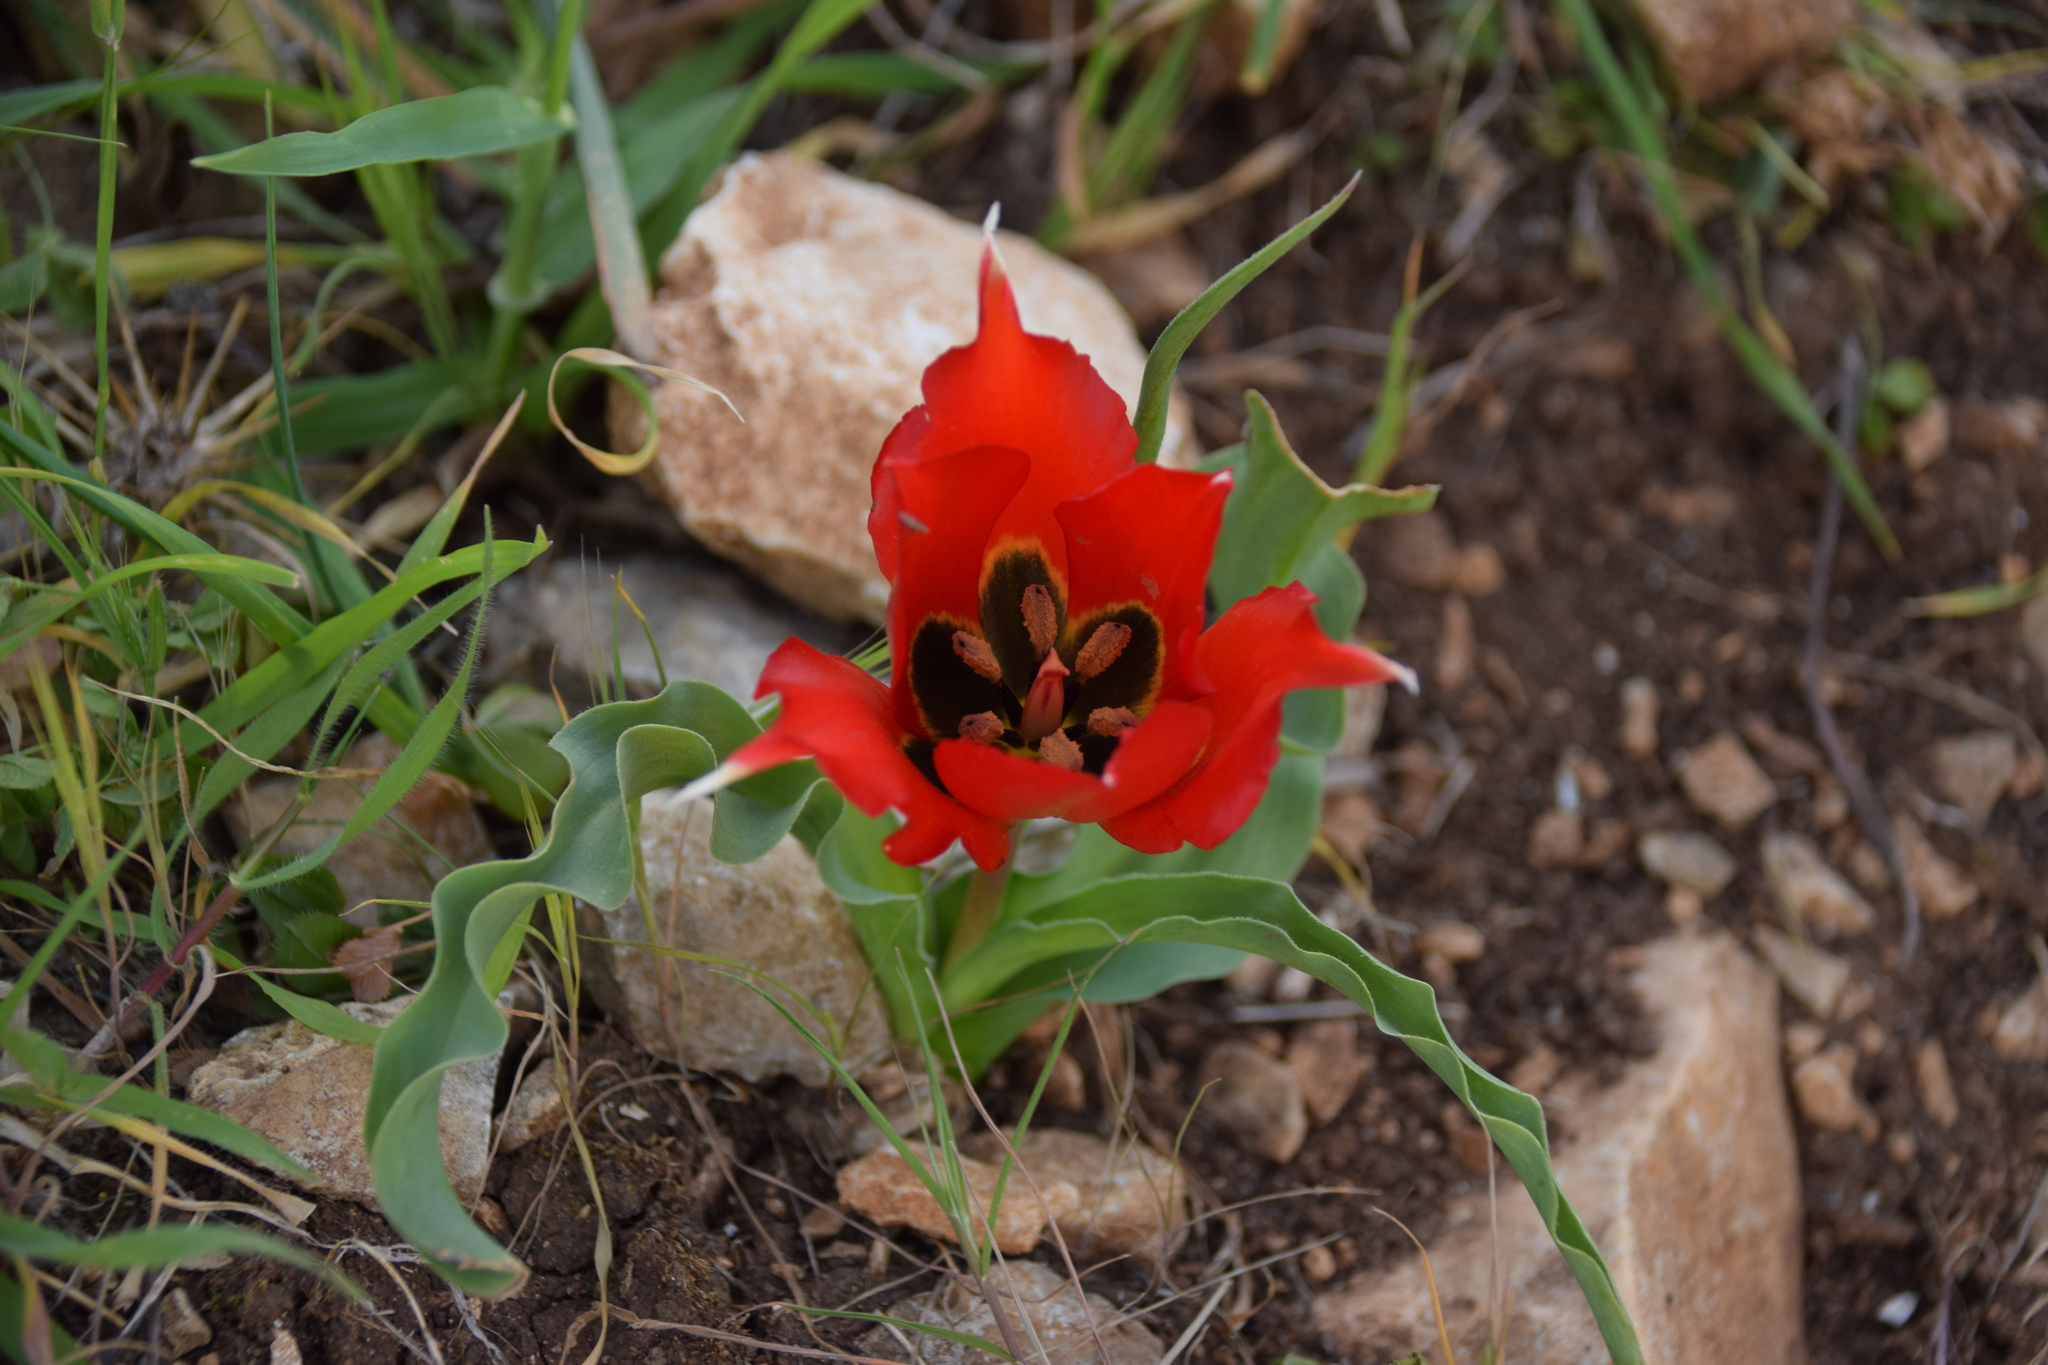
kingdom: Plantae
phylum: Tracheophyta
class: Liliopsida
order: Liliales
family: Liliaceae
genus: Tulipa
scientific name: Tulipa agenensis
